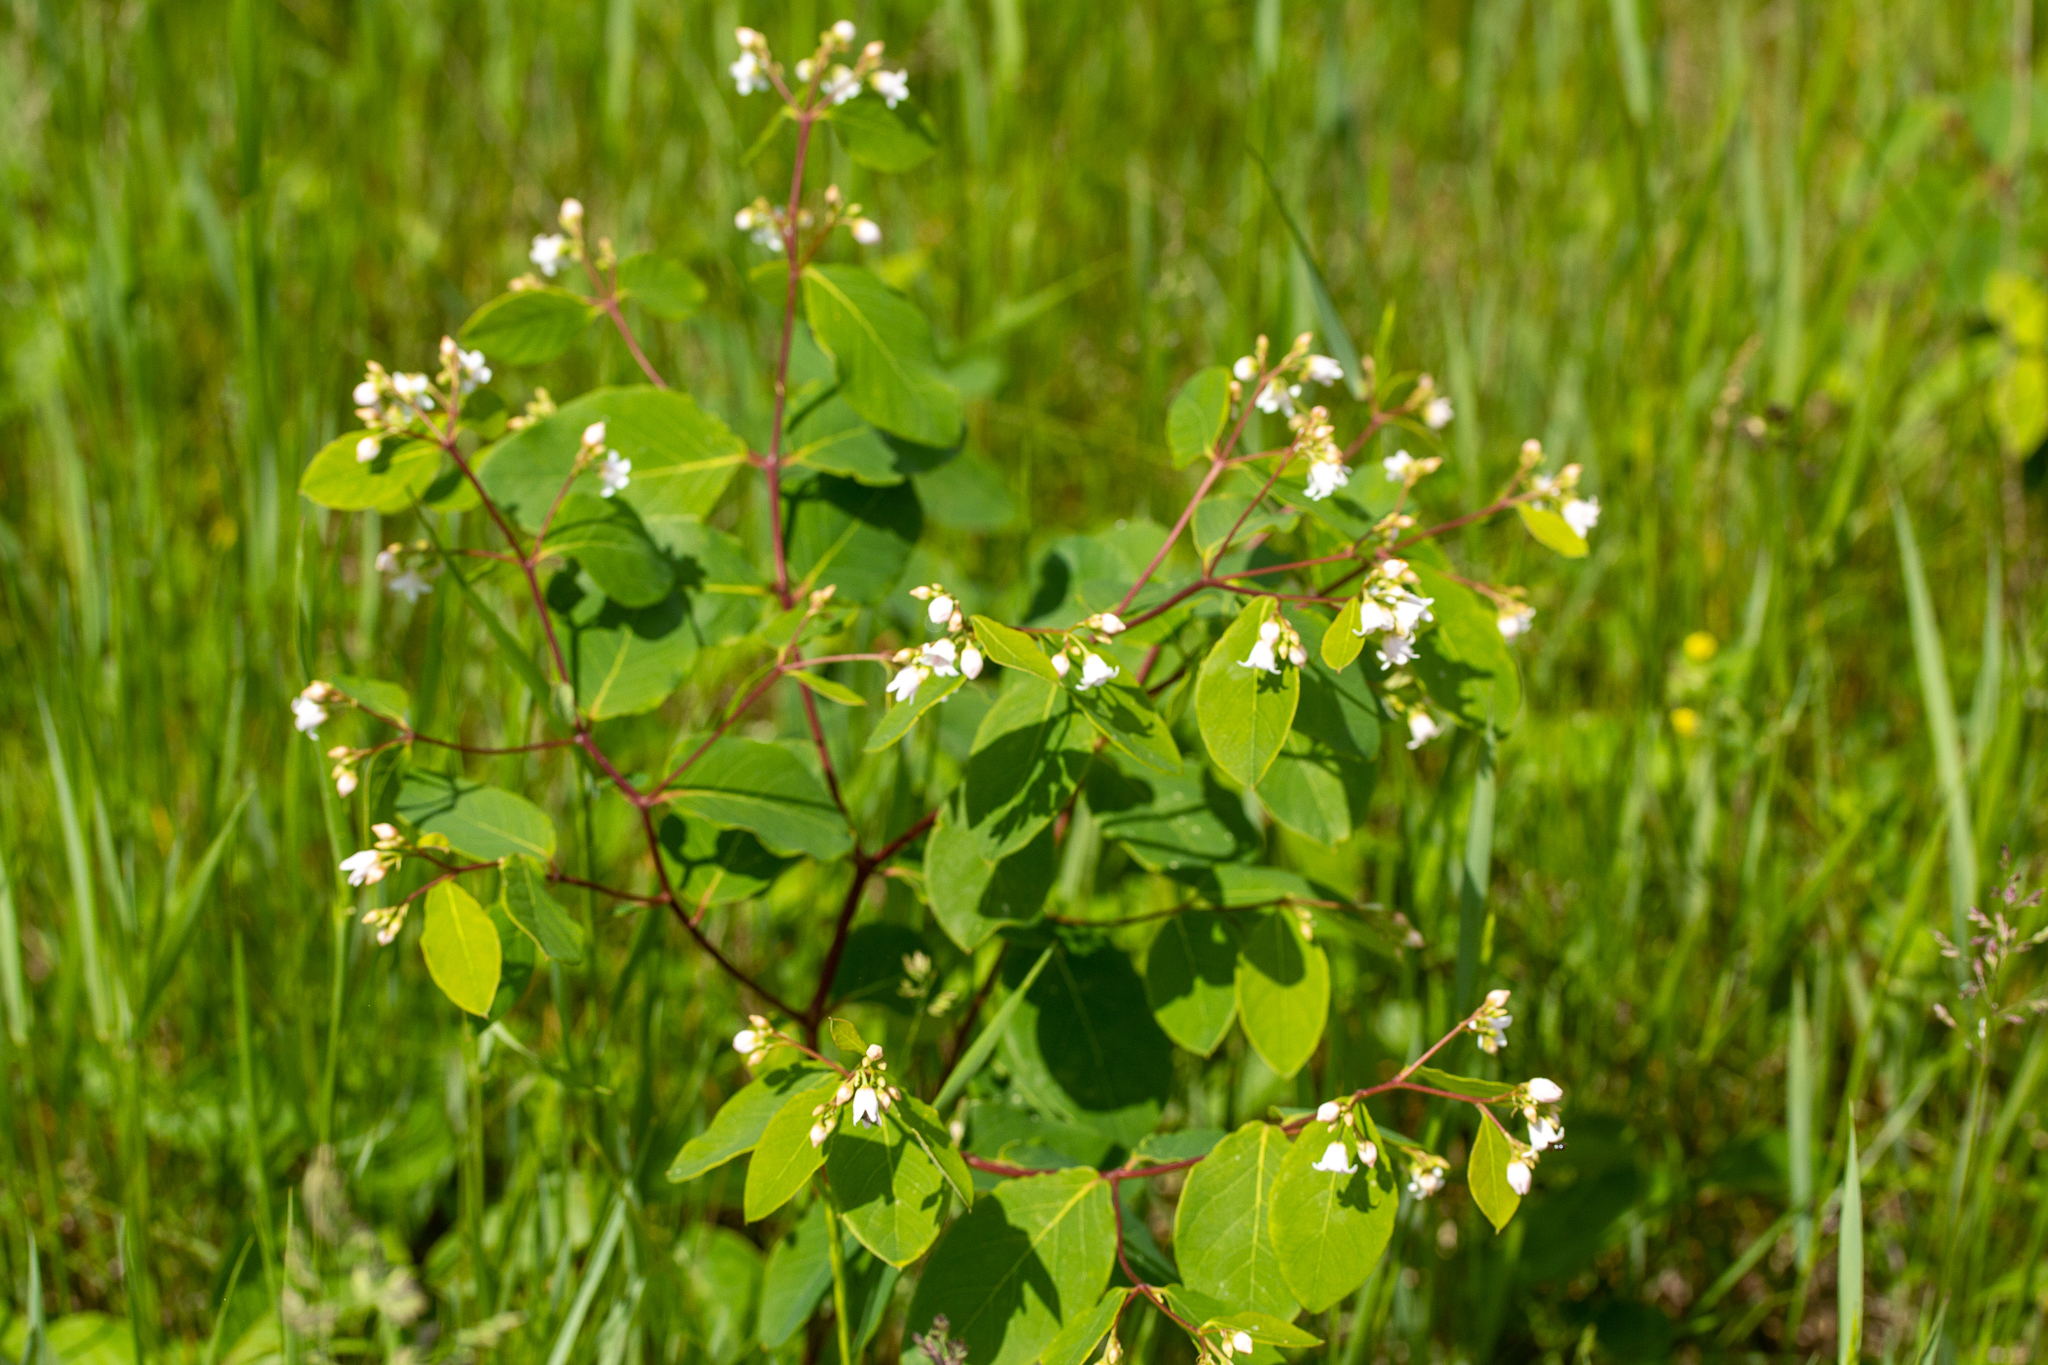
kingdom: Plantae
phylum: Tracheophyta
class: Magnoliopsida
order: Gentianales
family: Apocynaceae
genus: Apocynum
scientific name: Apocynum androsaemifolium
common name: Spreading dogbane
